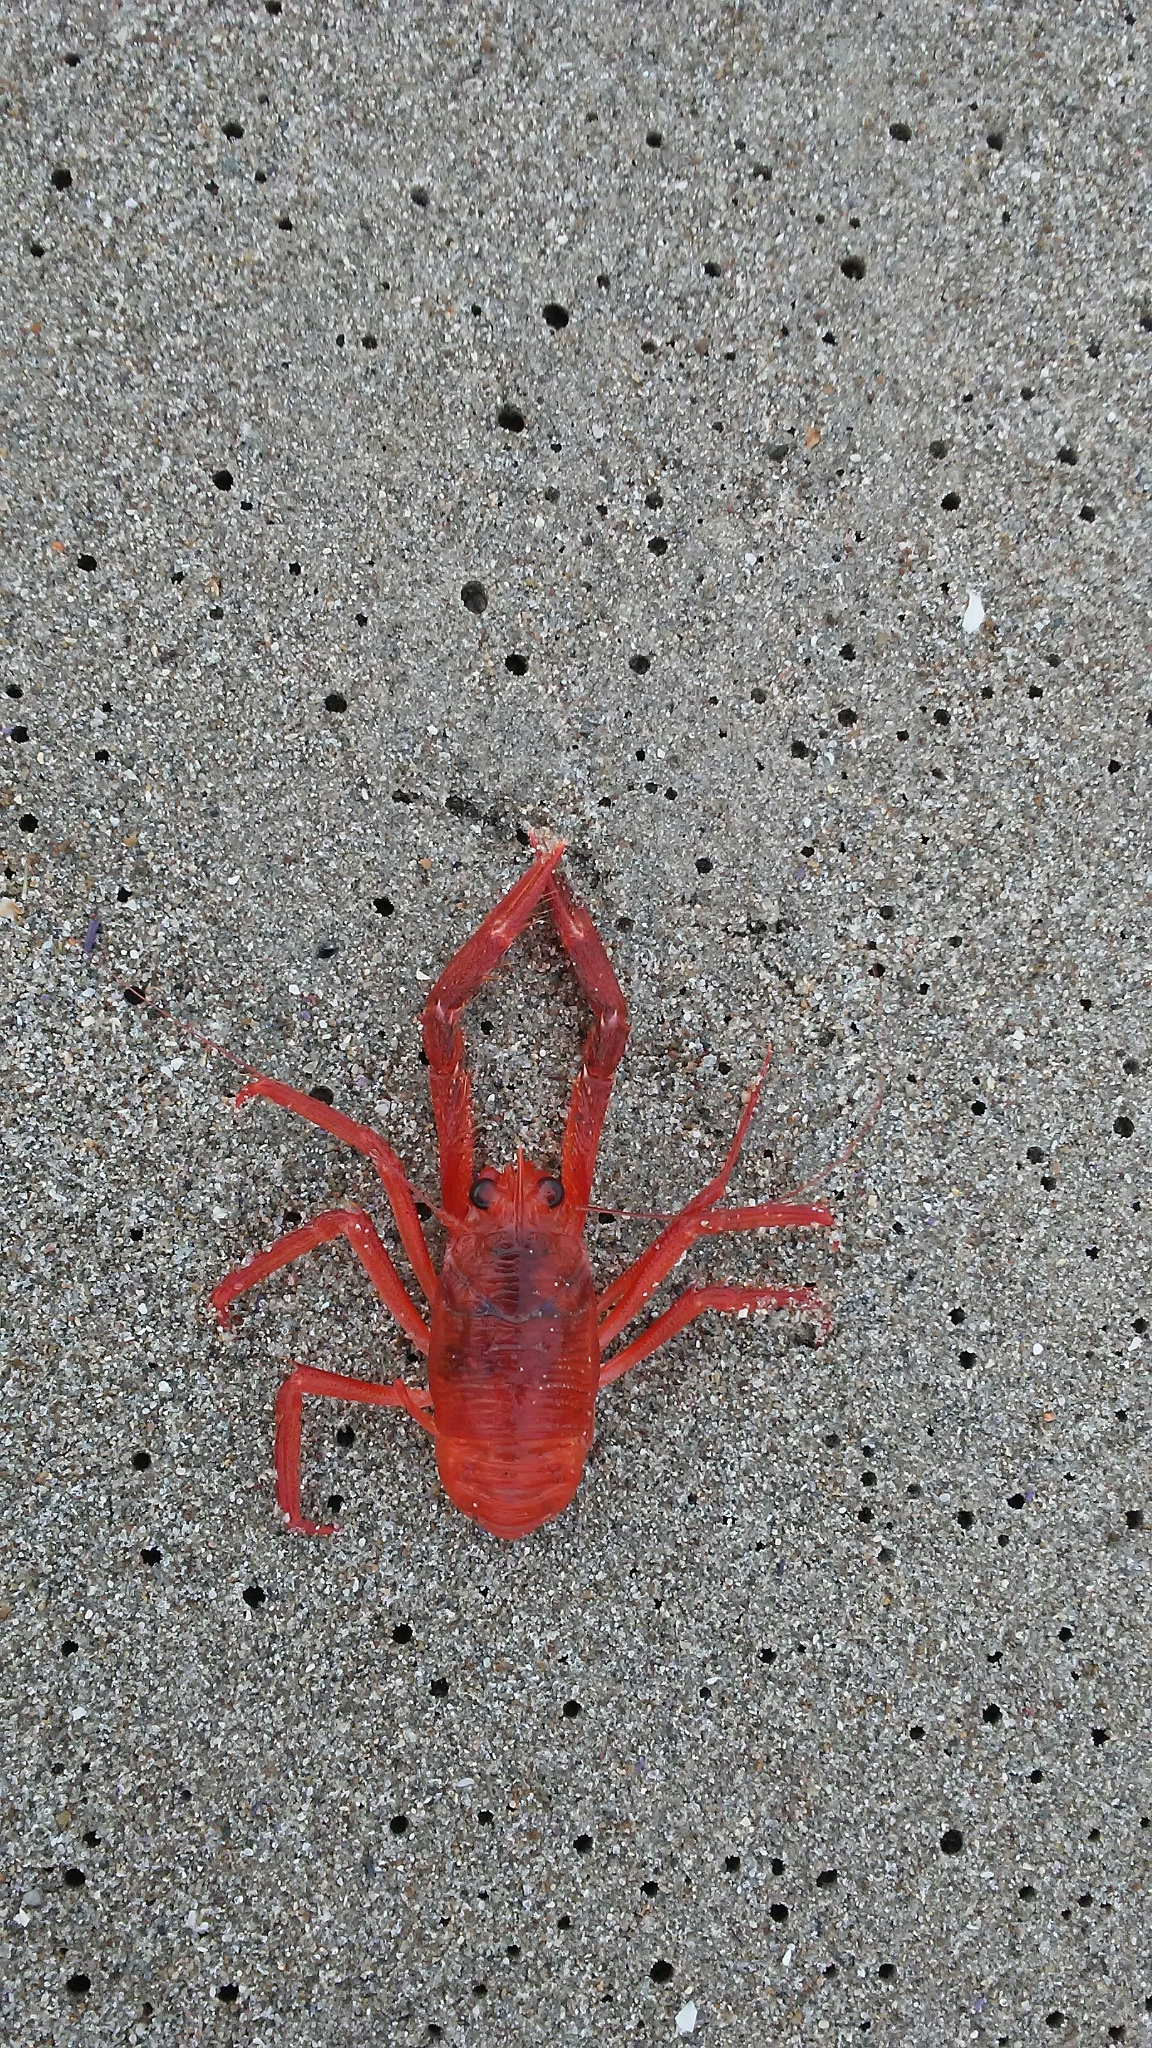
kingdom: Animalia
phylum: Arthropoda
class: Malacostraca
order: Decapoda
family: Munididae
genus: Grimothea
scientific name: Grimothea planipes
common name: Pelagic red crab
